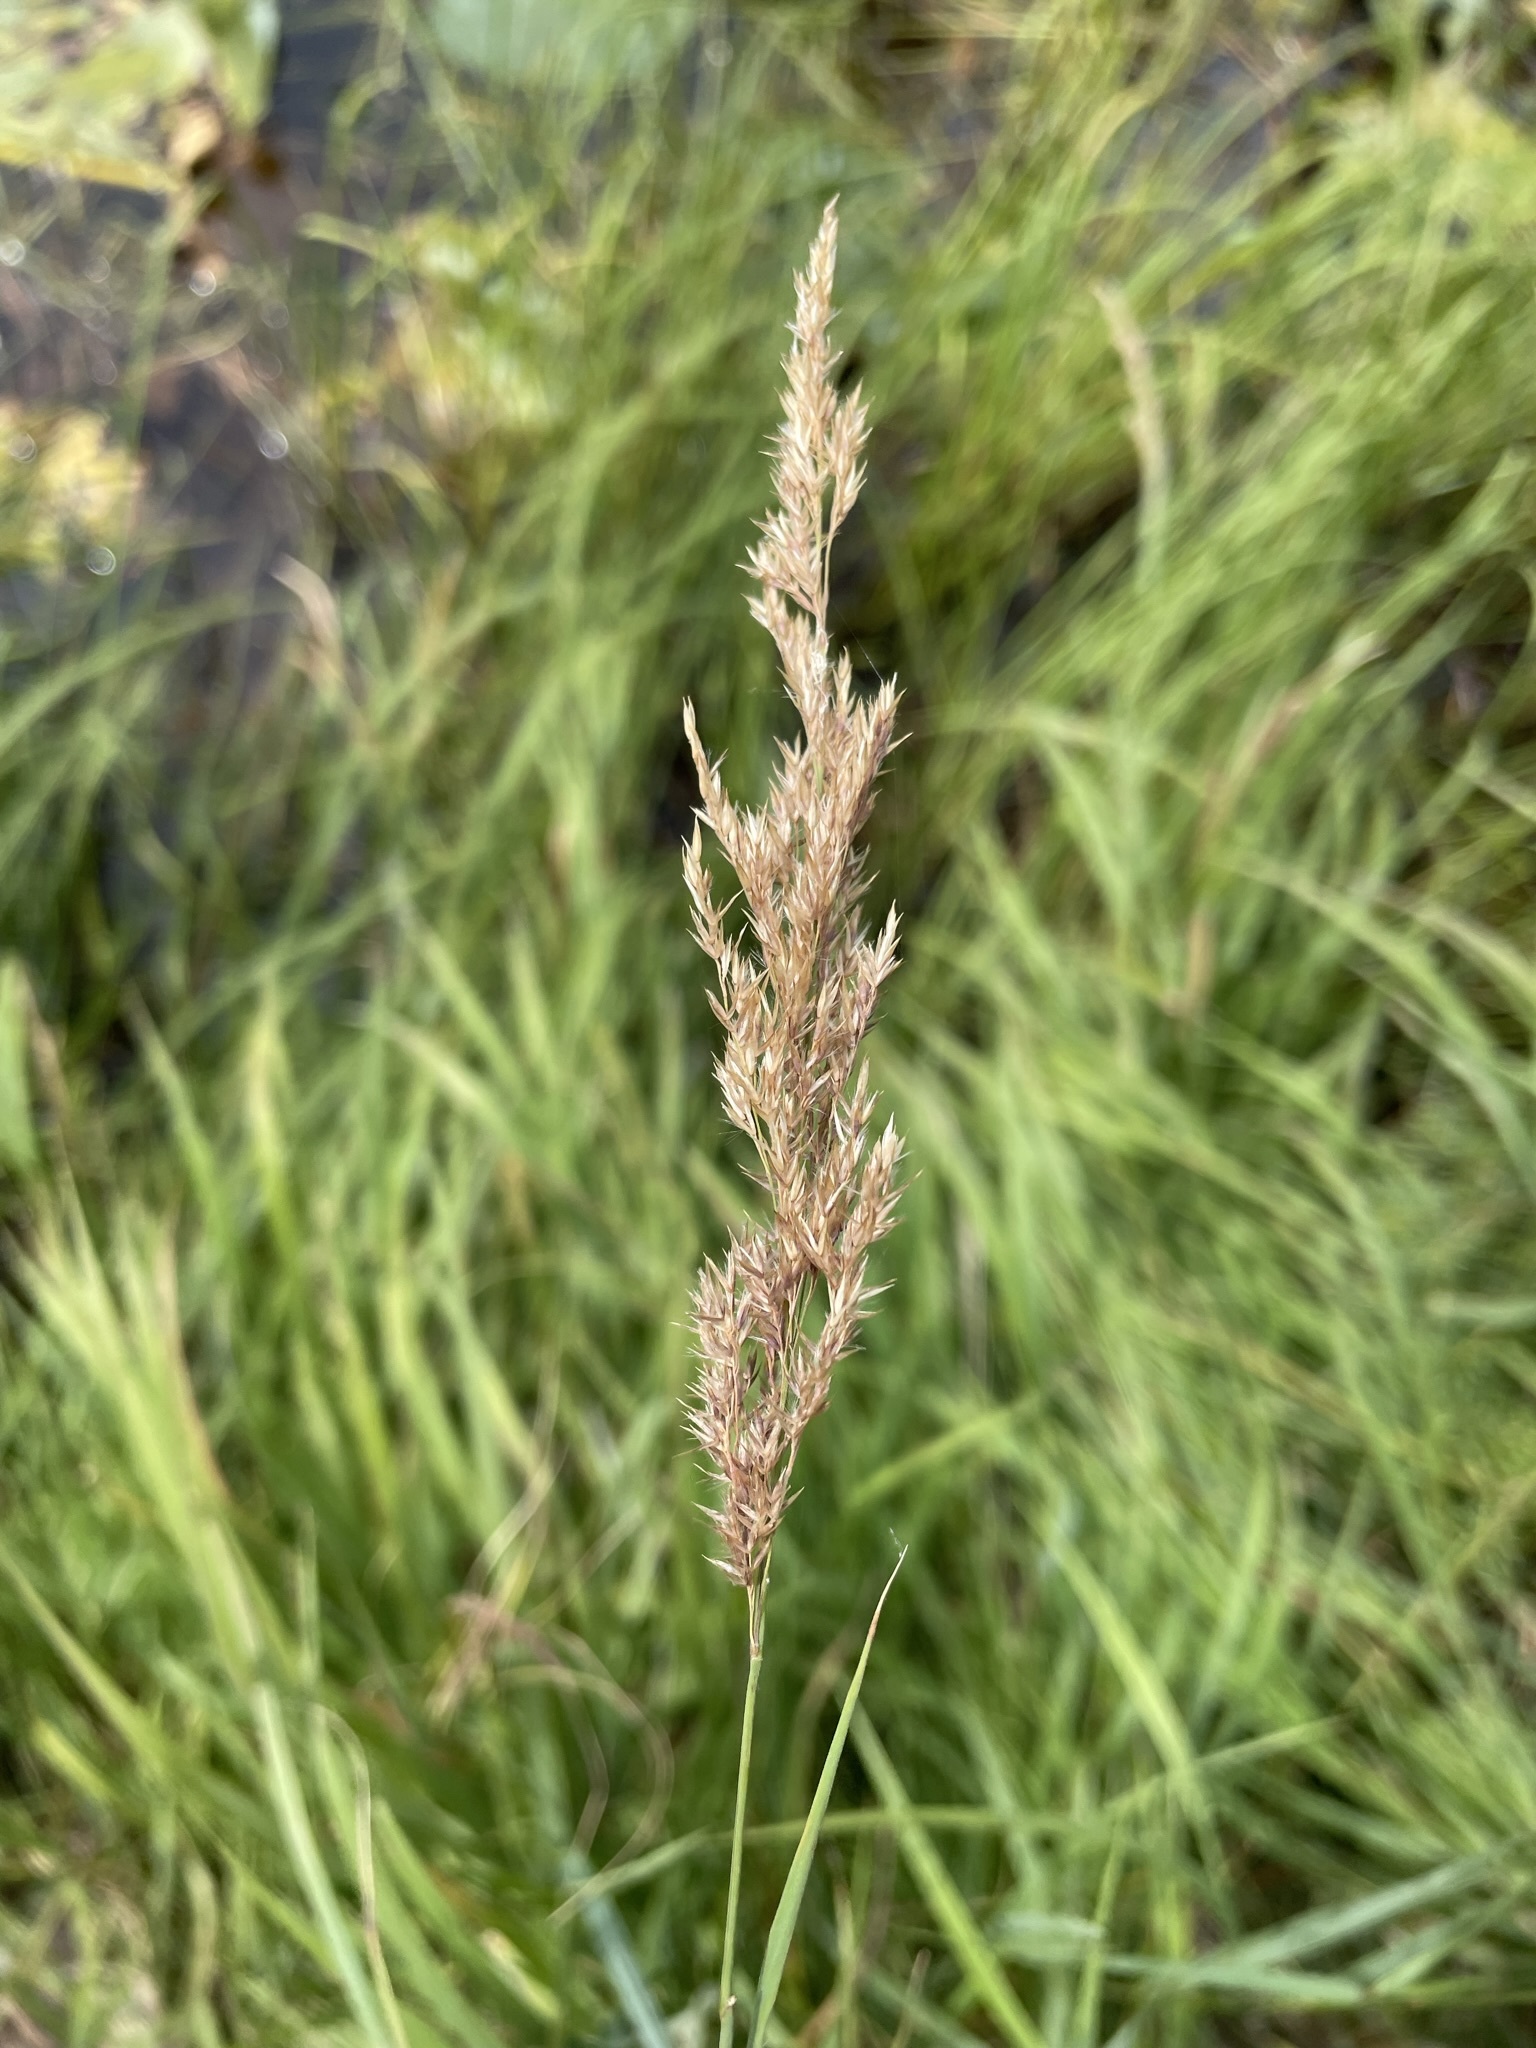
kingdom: Plantae
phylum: Tracheophyta
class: Liliopsida
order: Poales
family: Poaceae
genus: Calamagrostis
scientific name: Calamagrostis canadensis
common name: Canada bluejoint
